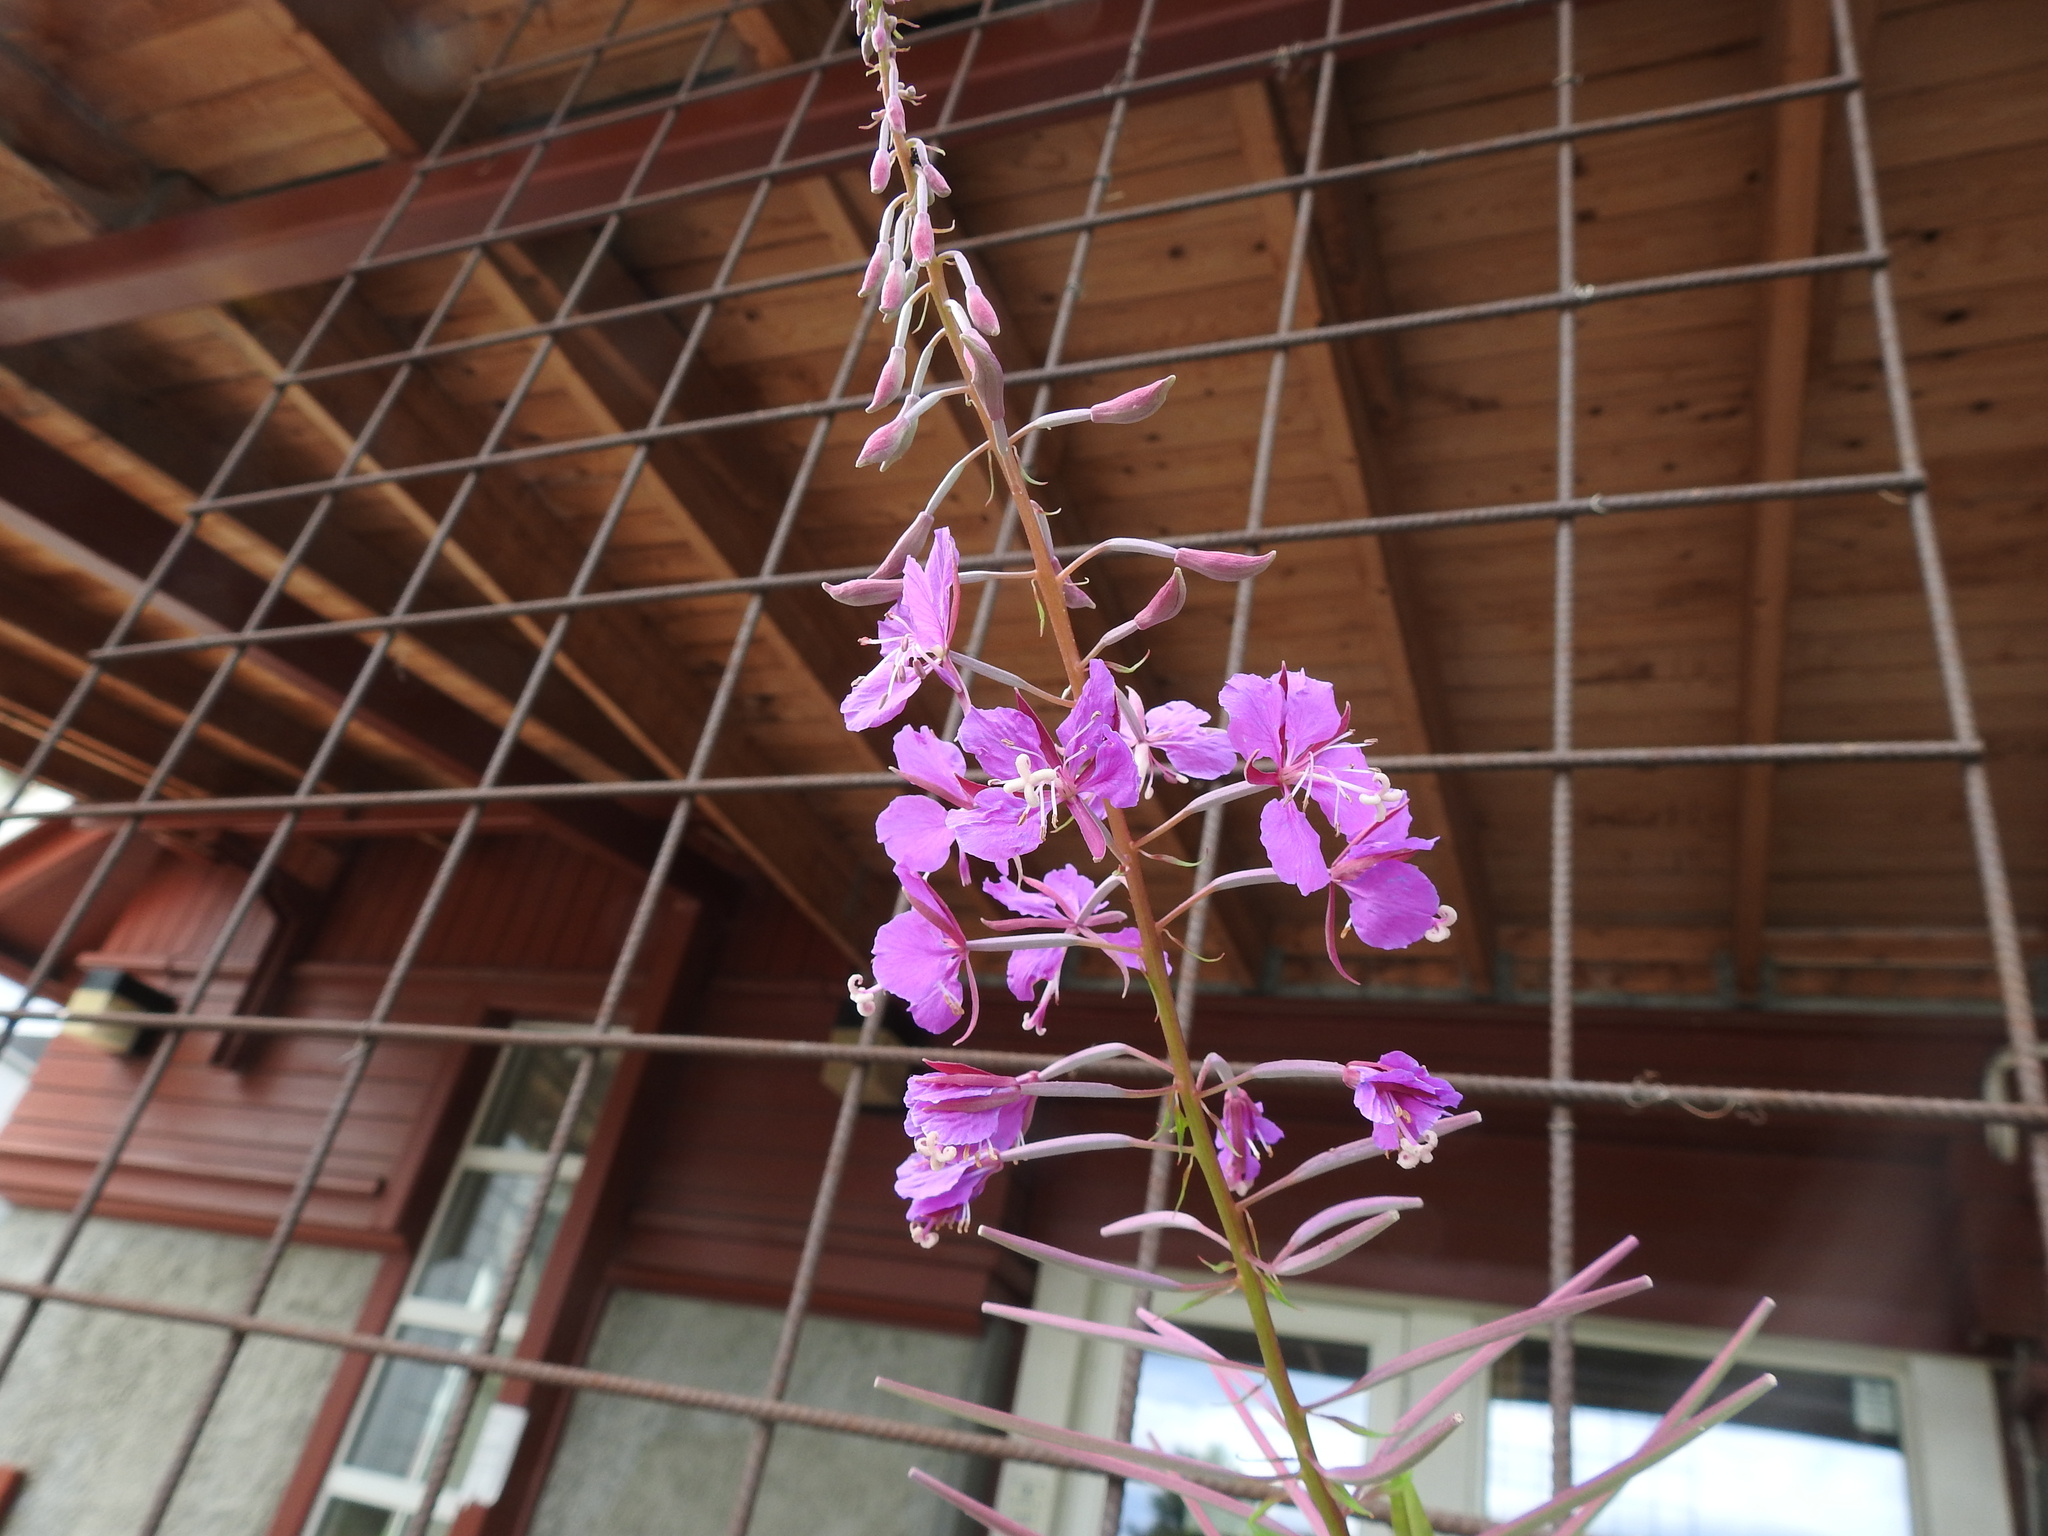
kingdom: Plantae
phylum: Tracheophyta
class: Magnoliopsida
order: Myrtales
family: Onagraceae
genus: Chamaenerion
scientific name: Chamaenerion angustifolium
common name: Fireweed
